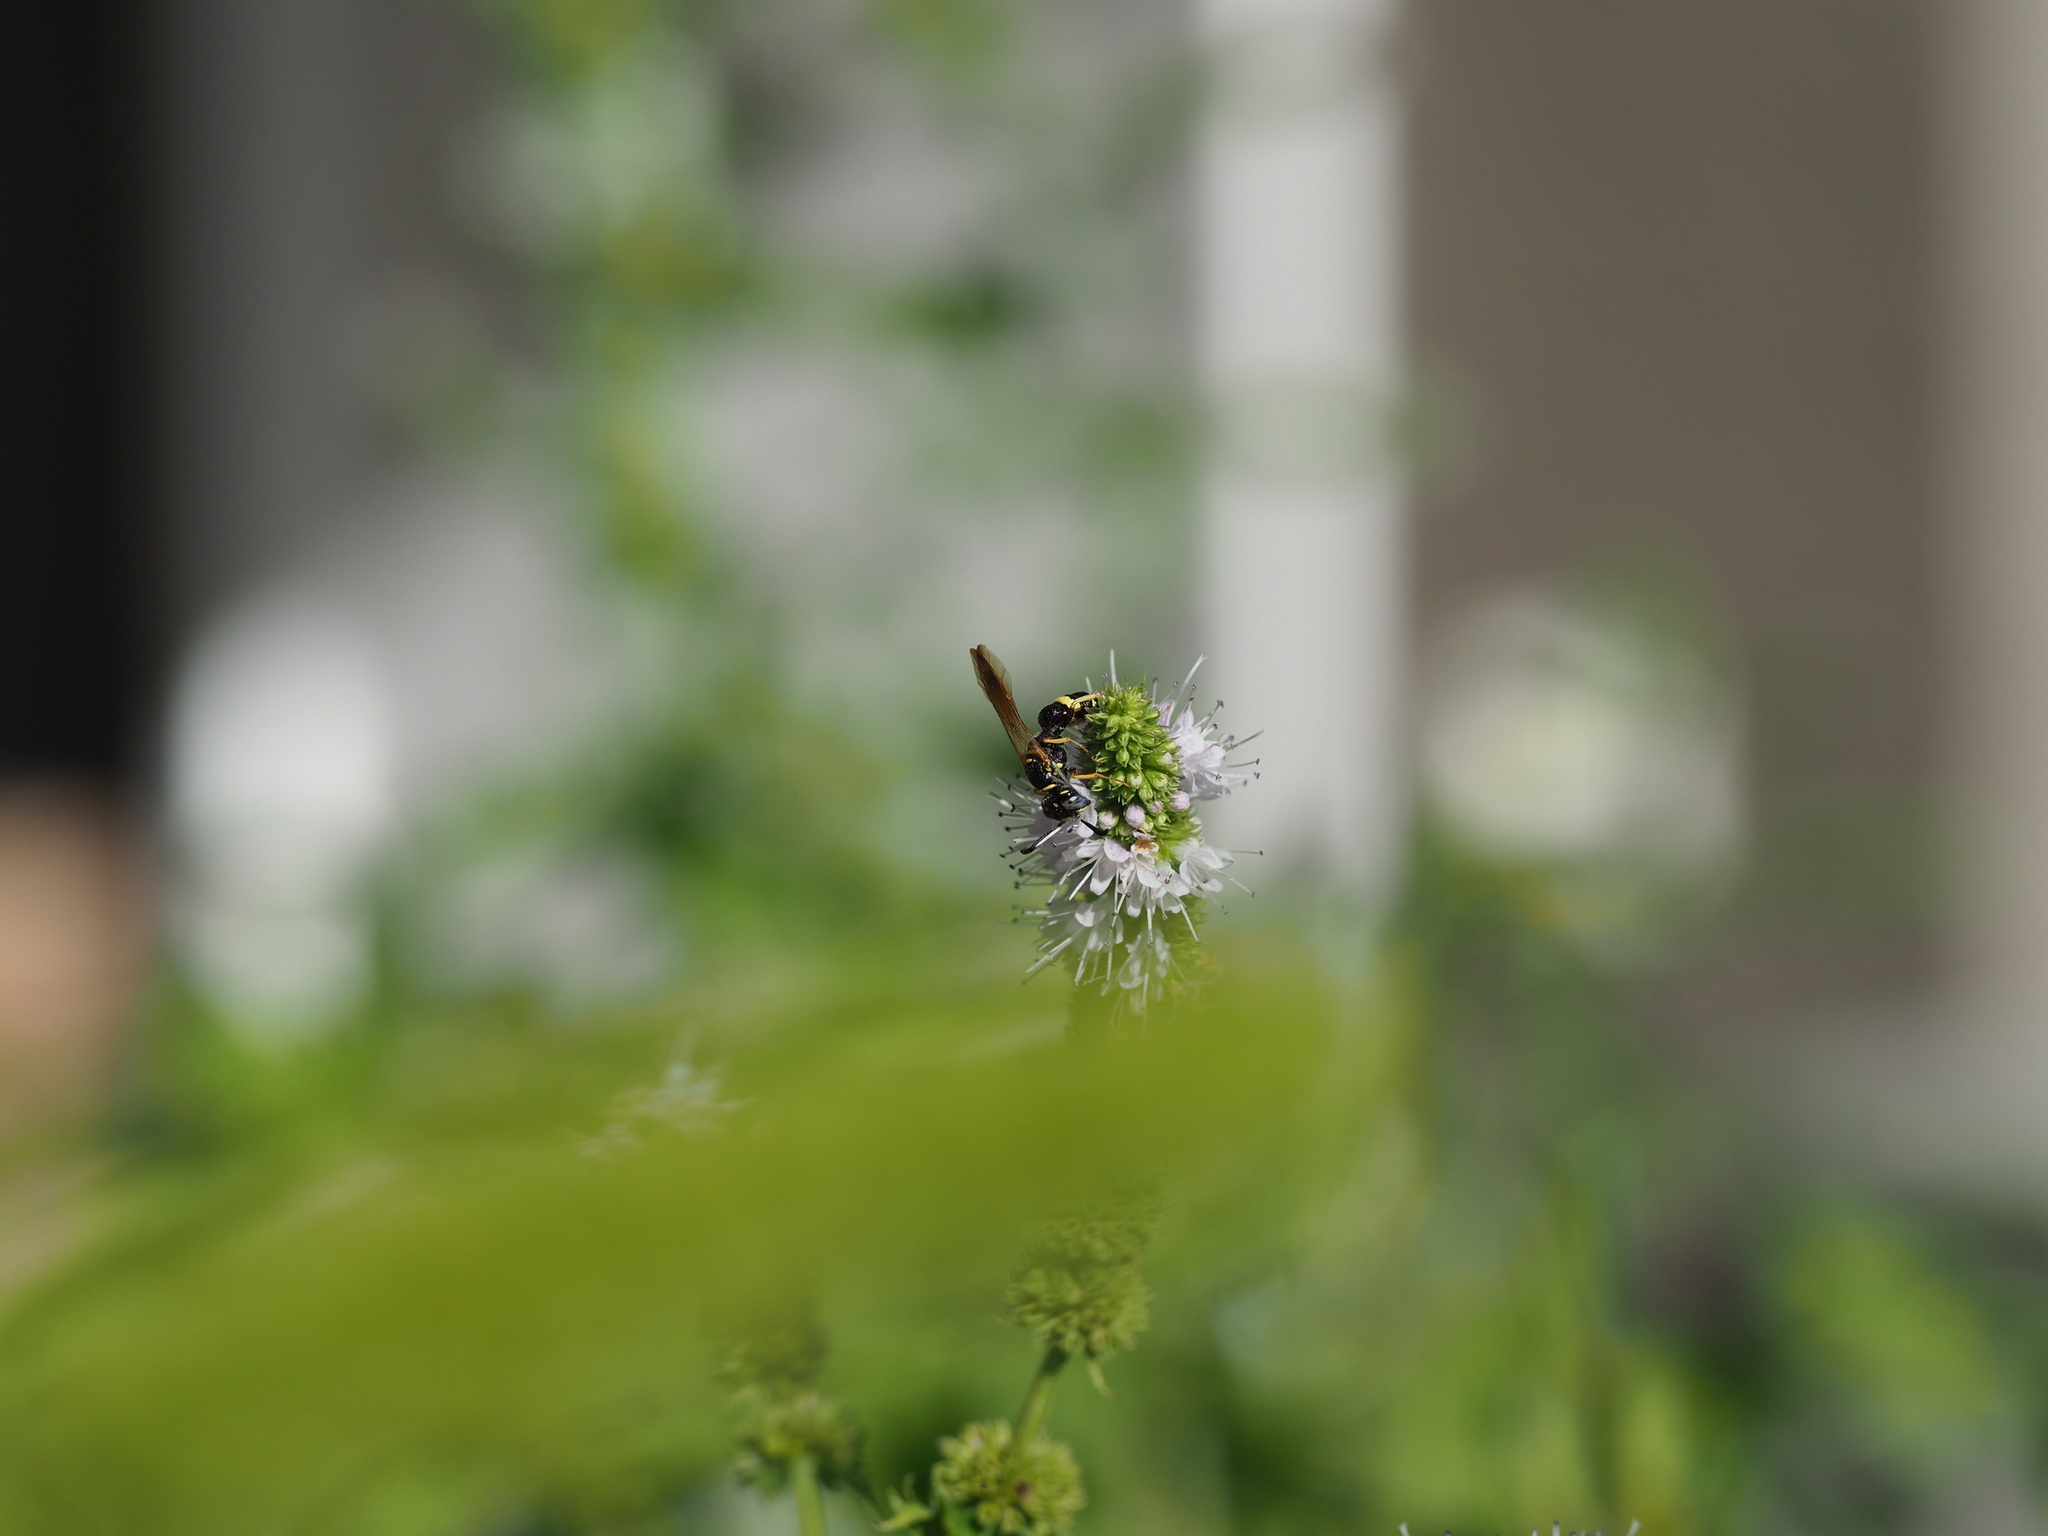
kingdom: Animalia
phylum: Arthropoda
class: Insecta
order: Hymenoptera
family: Crabronidae
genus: Philanthus
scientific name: Philanthus gibbosus
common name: Humped beewolf
